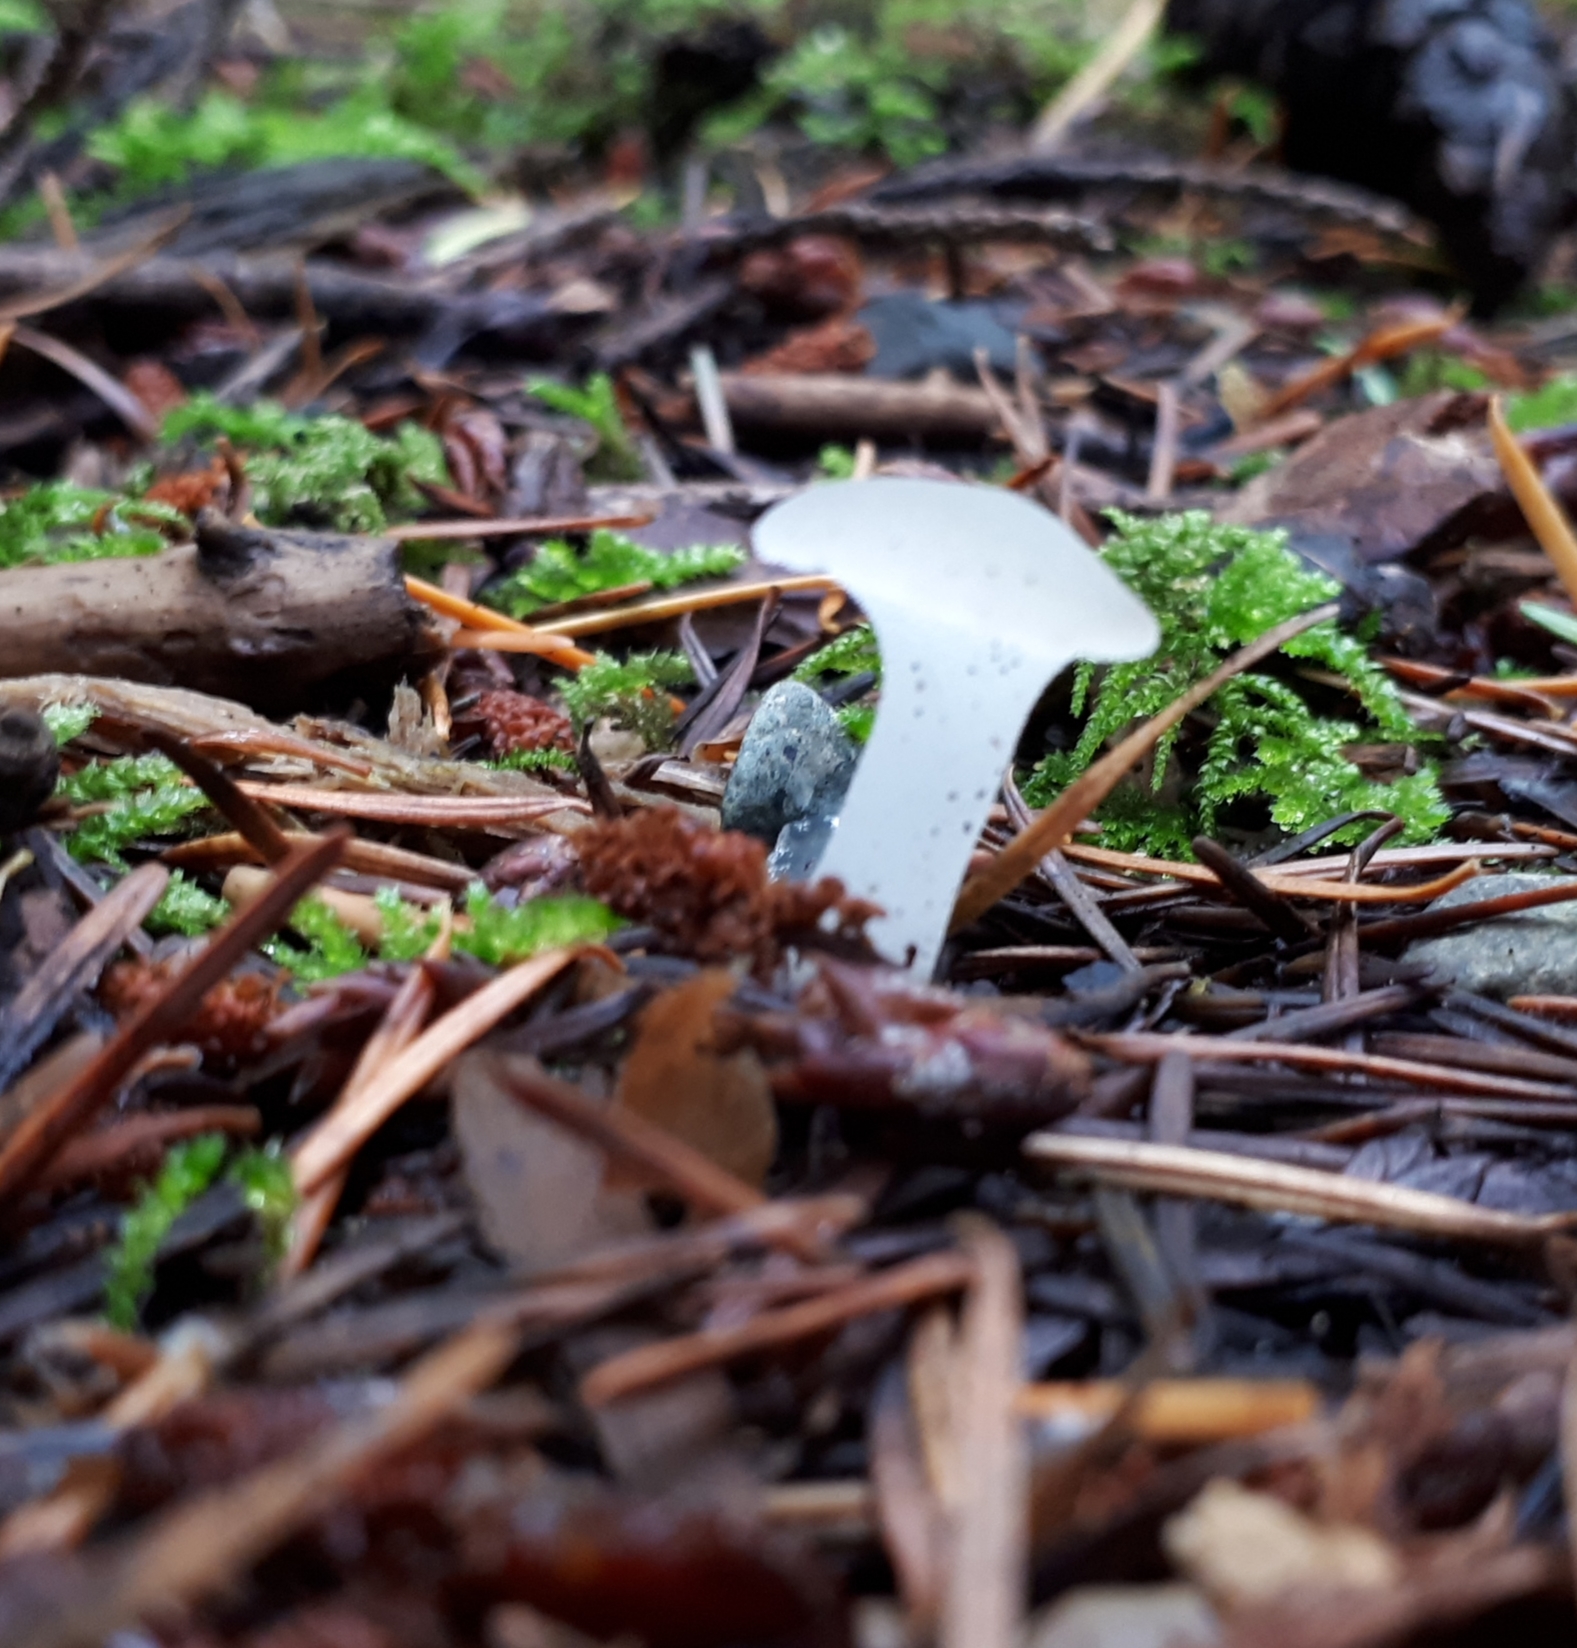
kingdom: Fungi
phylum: Basidiomycota
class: Agaricomycetes
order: Auriculariales
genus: Pseudohydnum
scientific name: Pseudohydnum gelatinosum
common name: Jelly tongue
